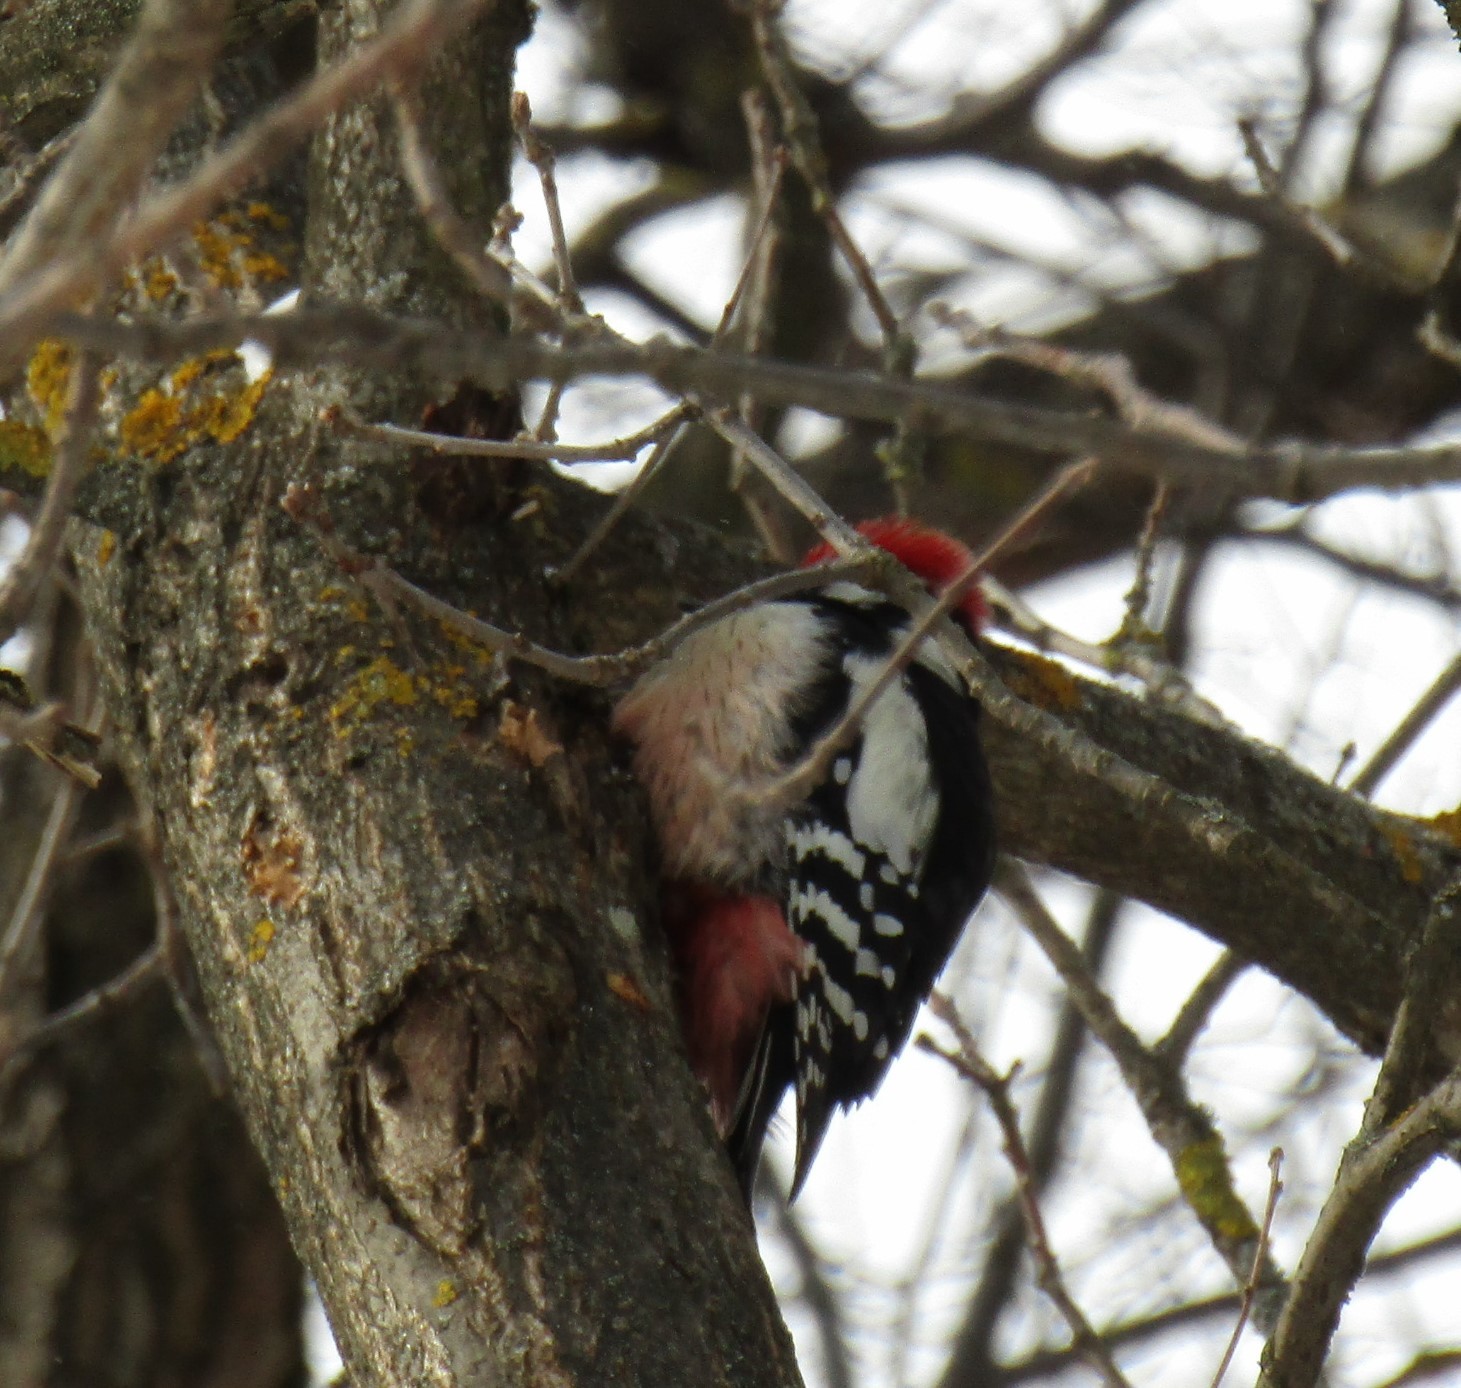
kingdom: Animalia
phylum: Chordata
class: Aves
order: Piciformes
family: Picidae
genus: Dendrocoptes
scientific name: Dendrocoptes medius
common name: Middle spotted woodpecker
